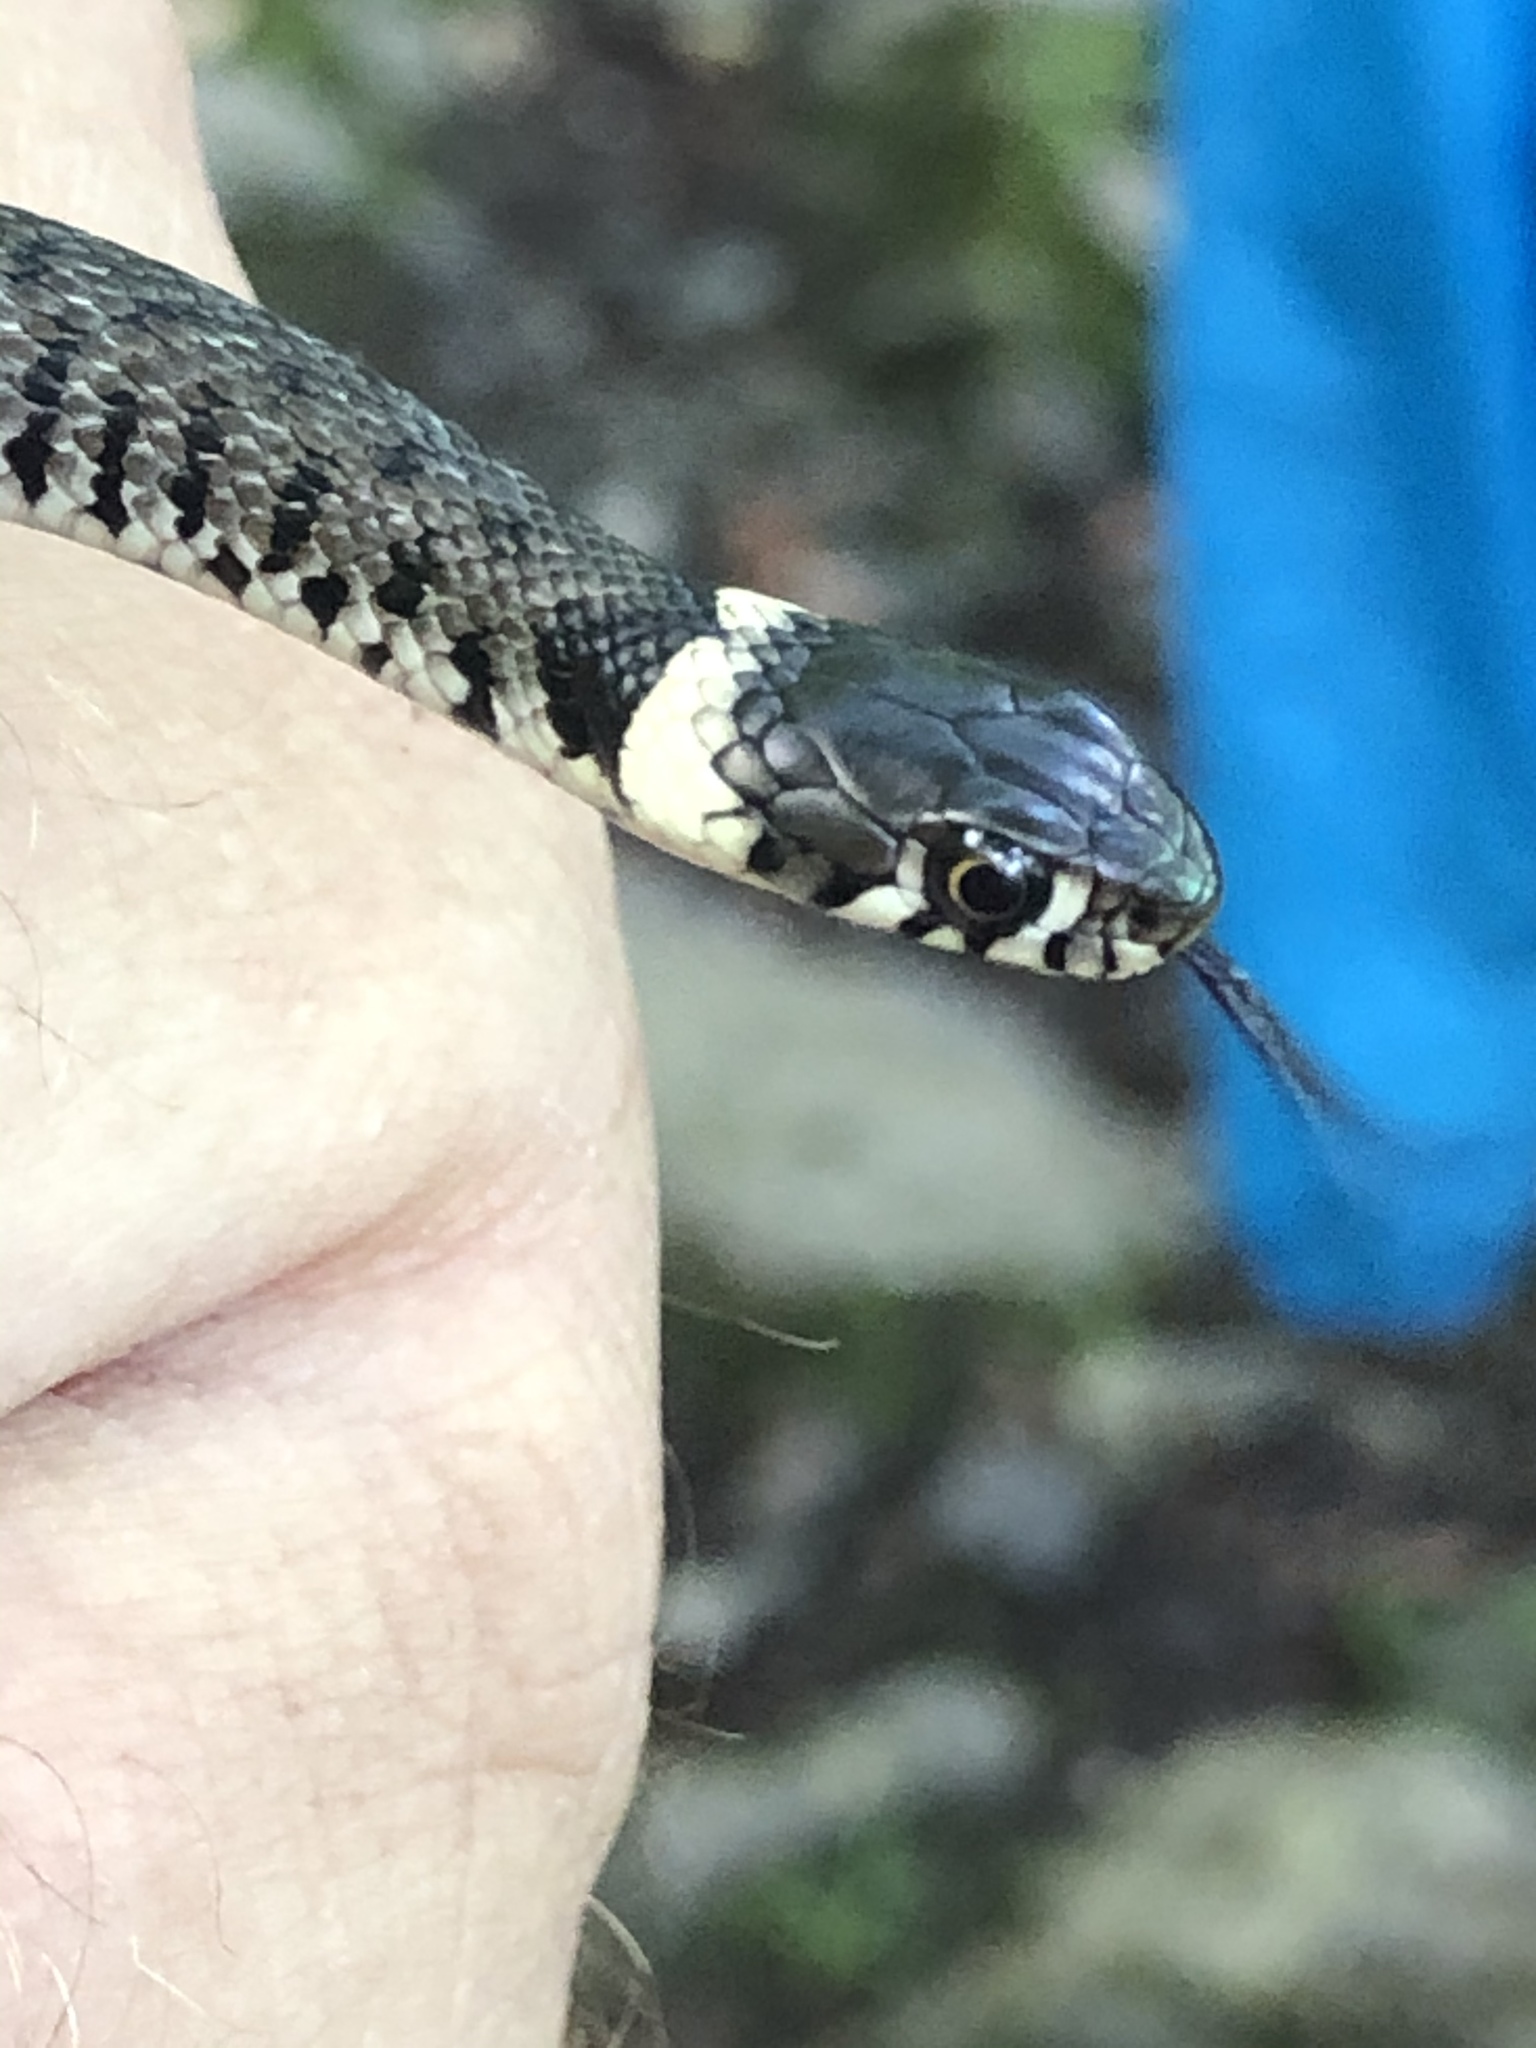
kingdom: Animalia
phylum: Chordata
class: Squamata
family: Colubridae
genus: Natrix
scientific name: Natrix helvetica
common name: Banded grass snake
